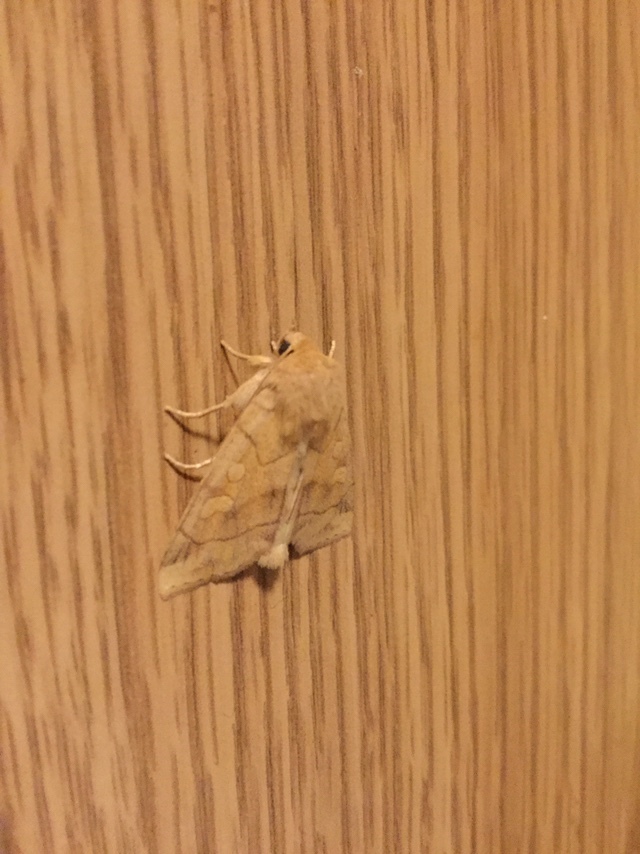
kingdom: Animalia
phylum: Arthropoda
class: Insecta
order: Lepidoptera
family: Noctuidae
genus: Enargia
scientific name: Enargia decolor
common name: Aspen twoleaf tier moth
